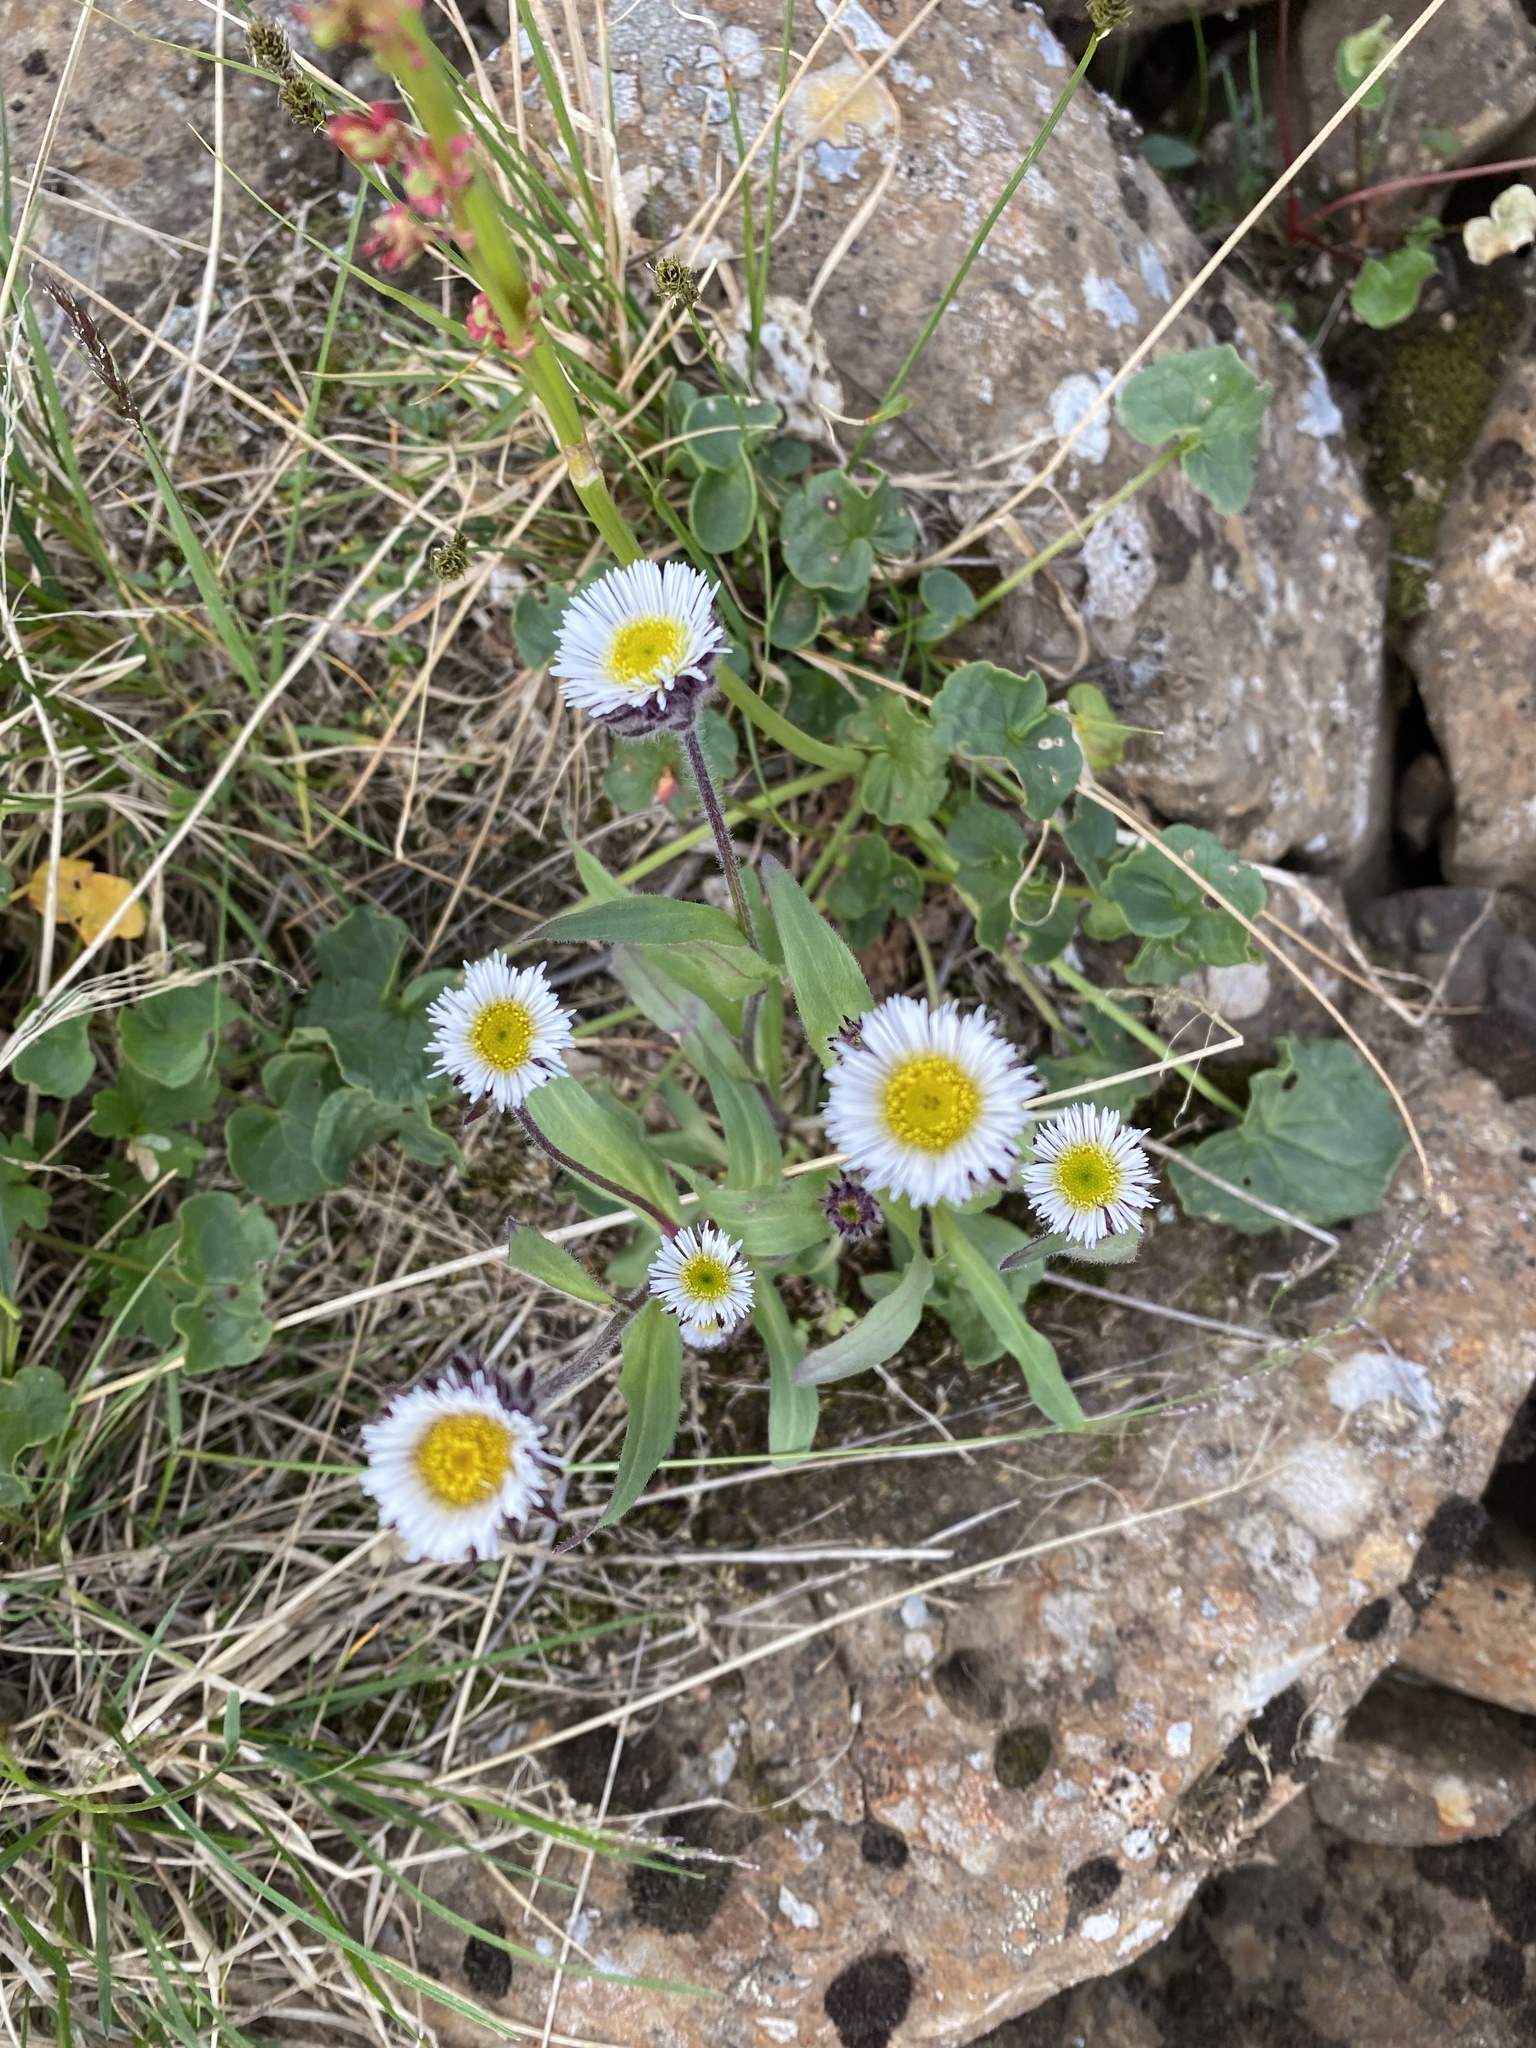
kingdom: Plantae
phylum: Tracheophyta
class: Magnoliopsida
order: Asterales
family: Asteraceae
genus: Erigeron
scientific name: Erigeron eriocalyx
